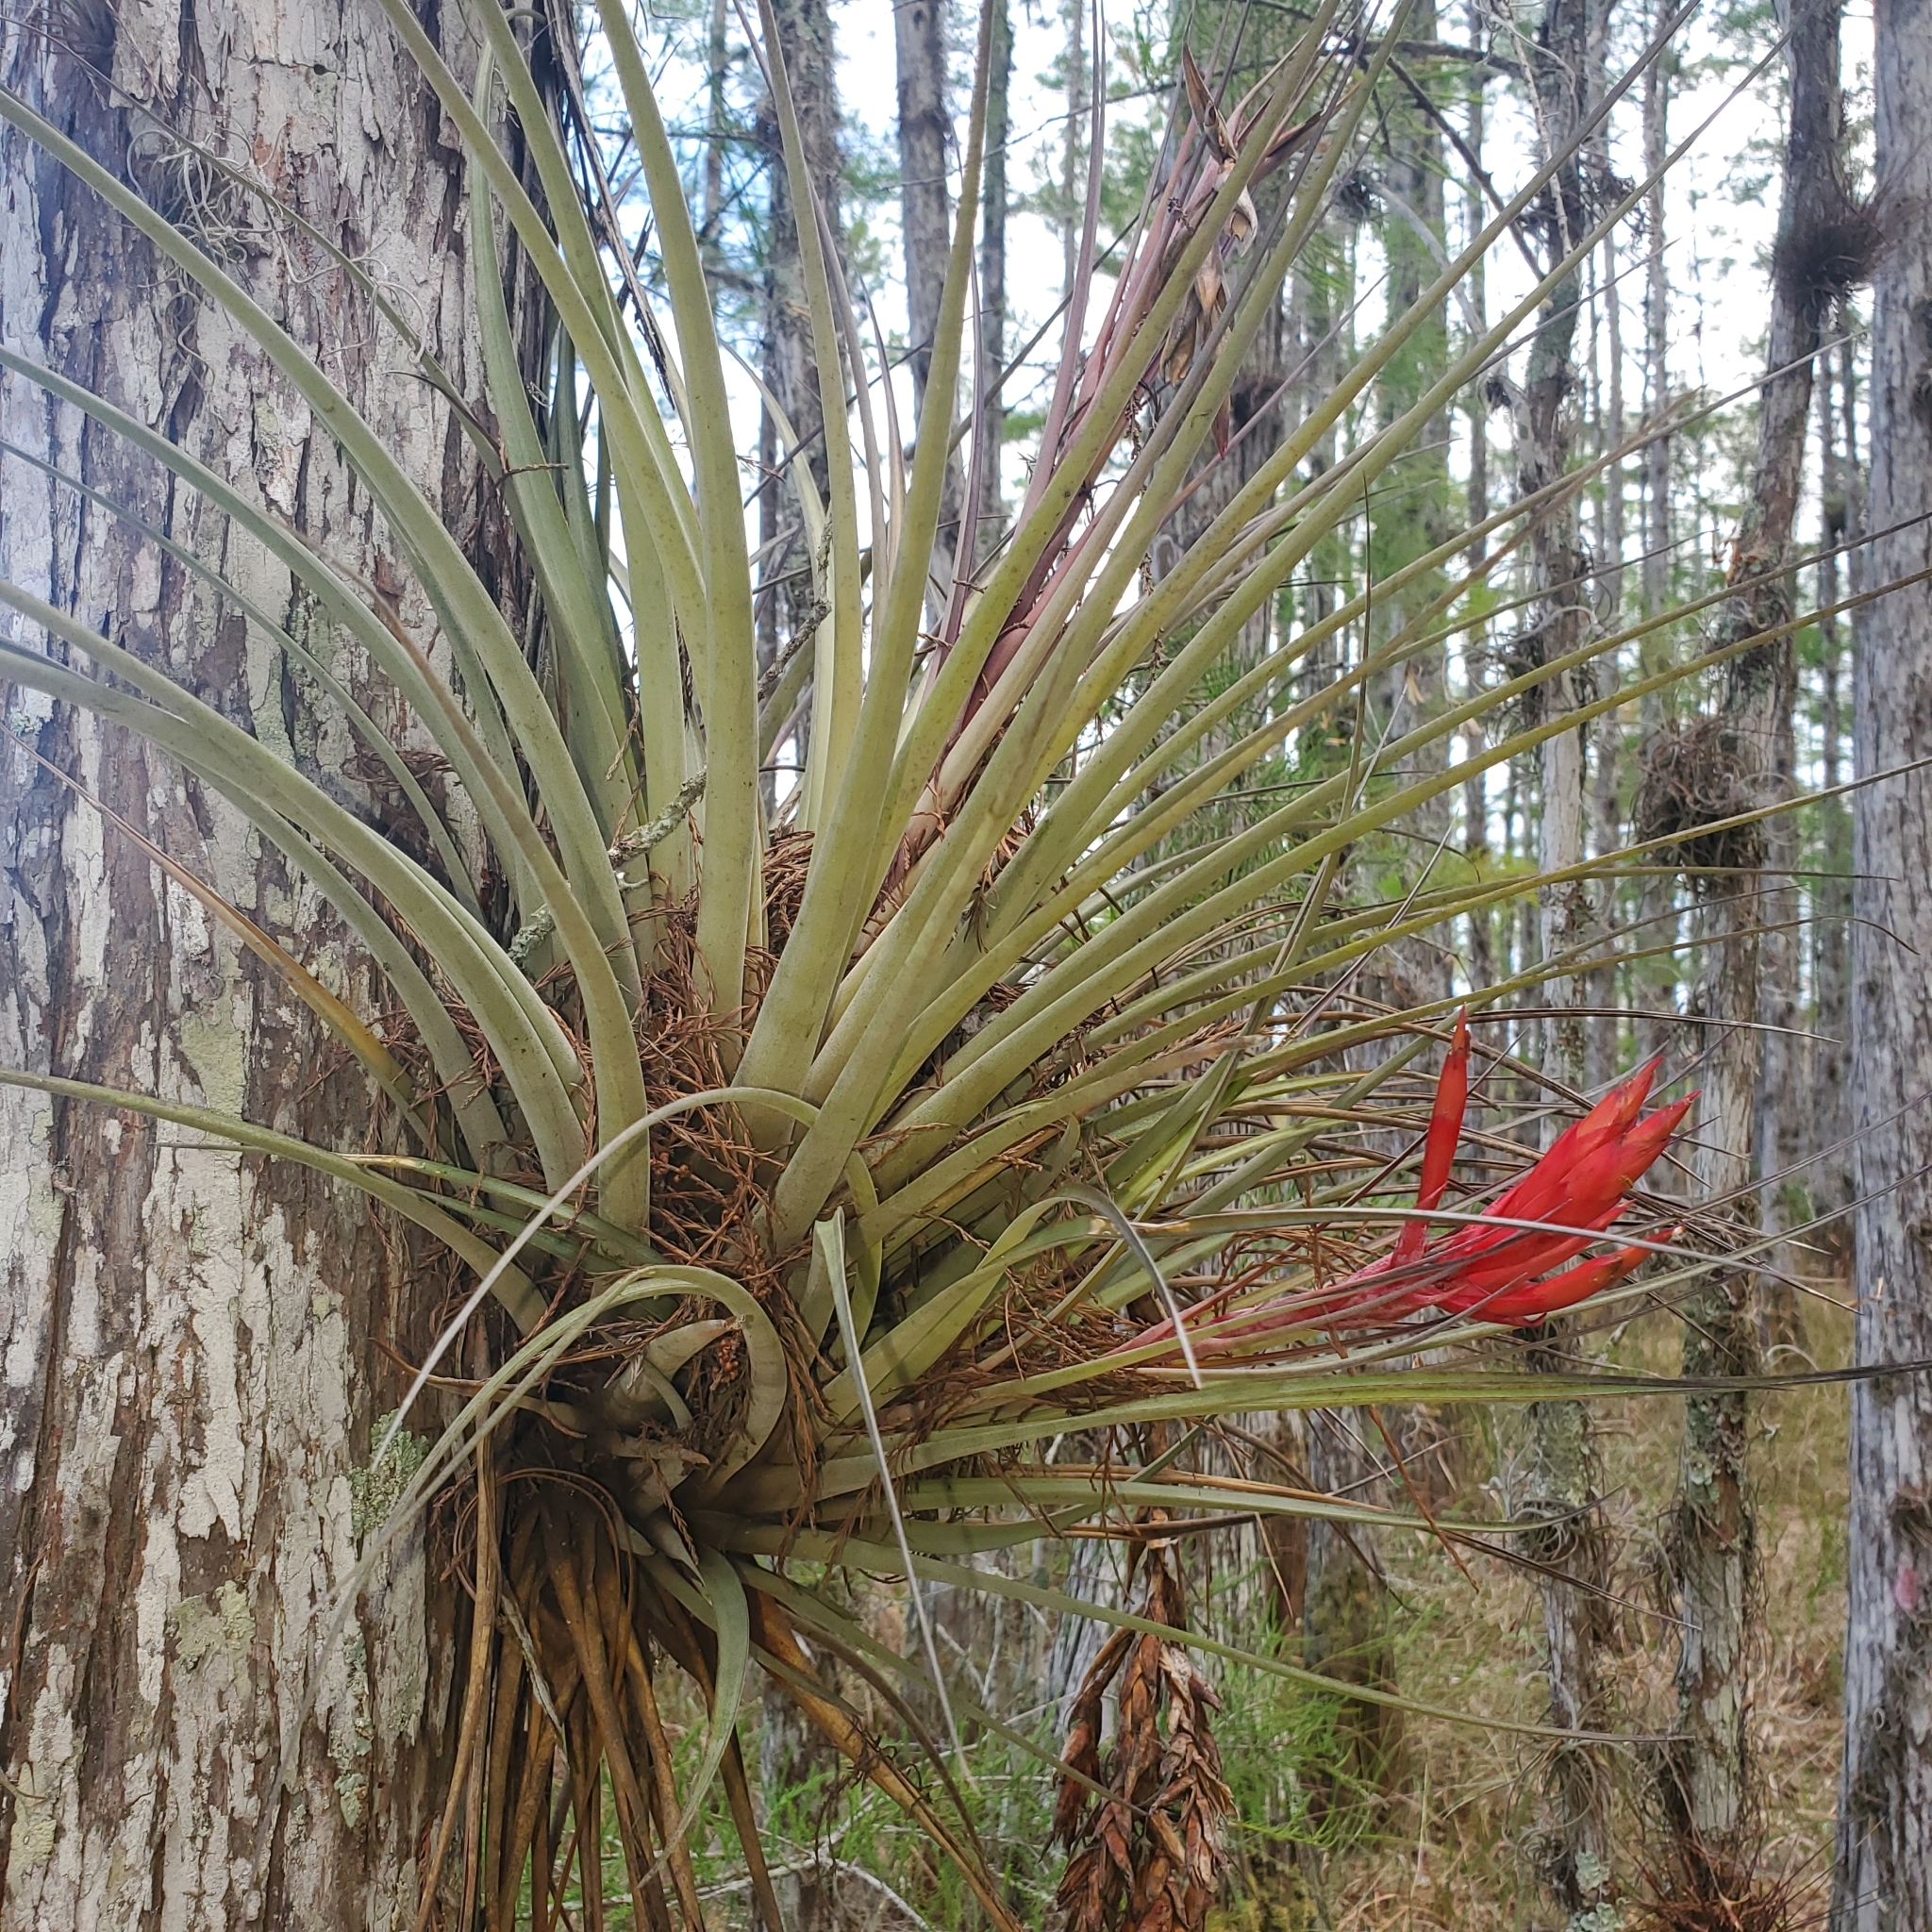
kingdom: Plantae
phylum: Tracheophyta
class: Liliopsida
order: Poales
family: Bromeliaceae
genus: Tillandsia
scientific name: Tillandsia fasciculata
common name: Giant airplant
